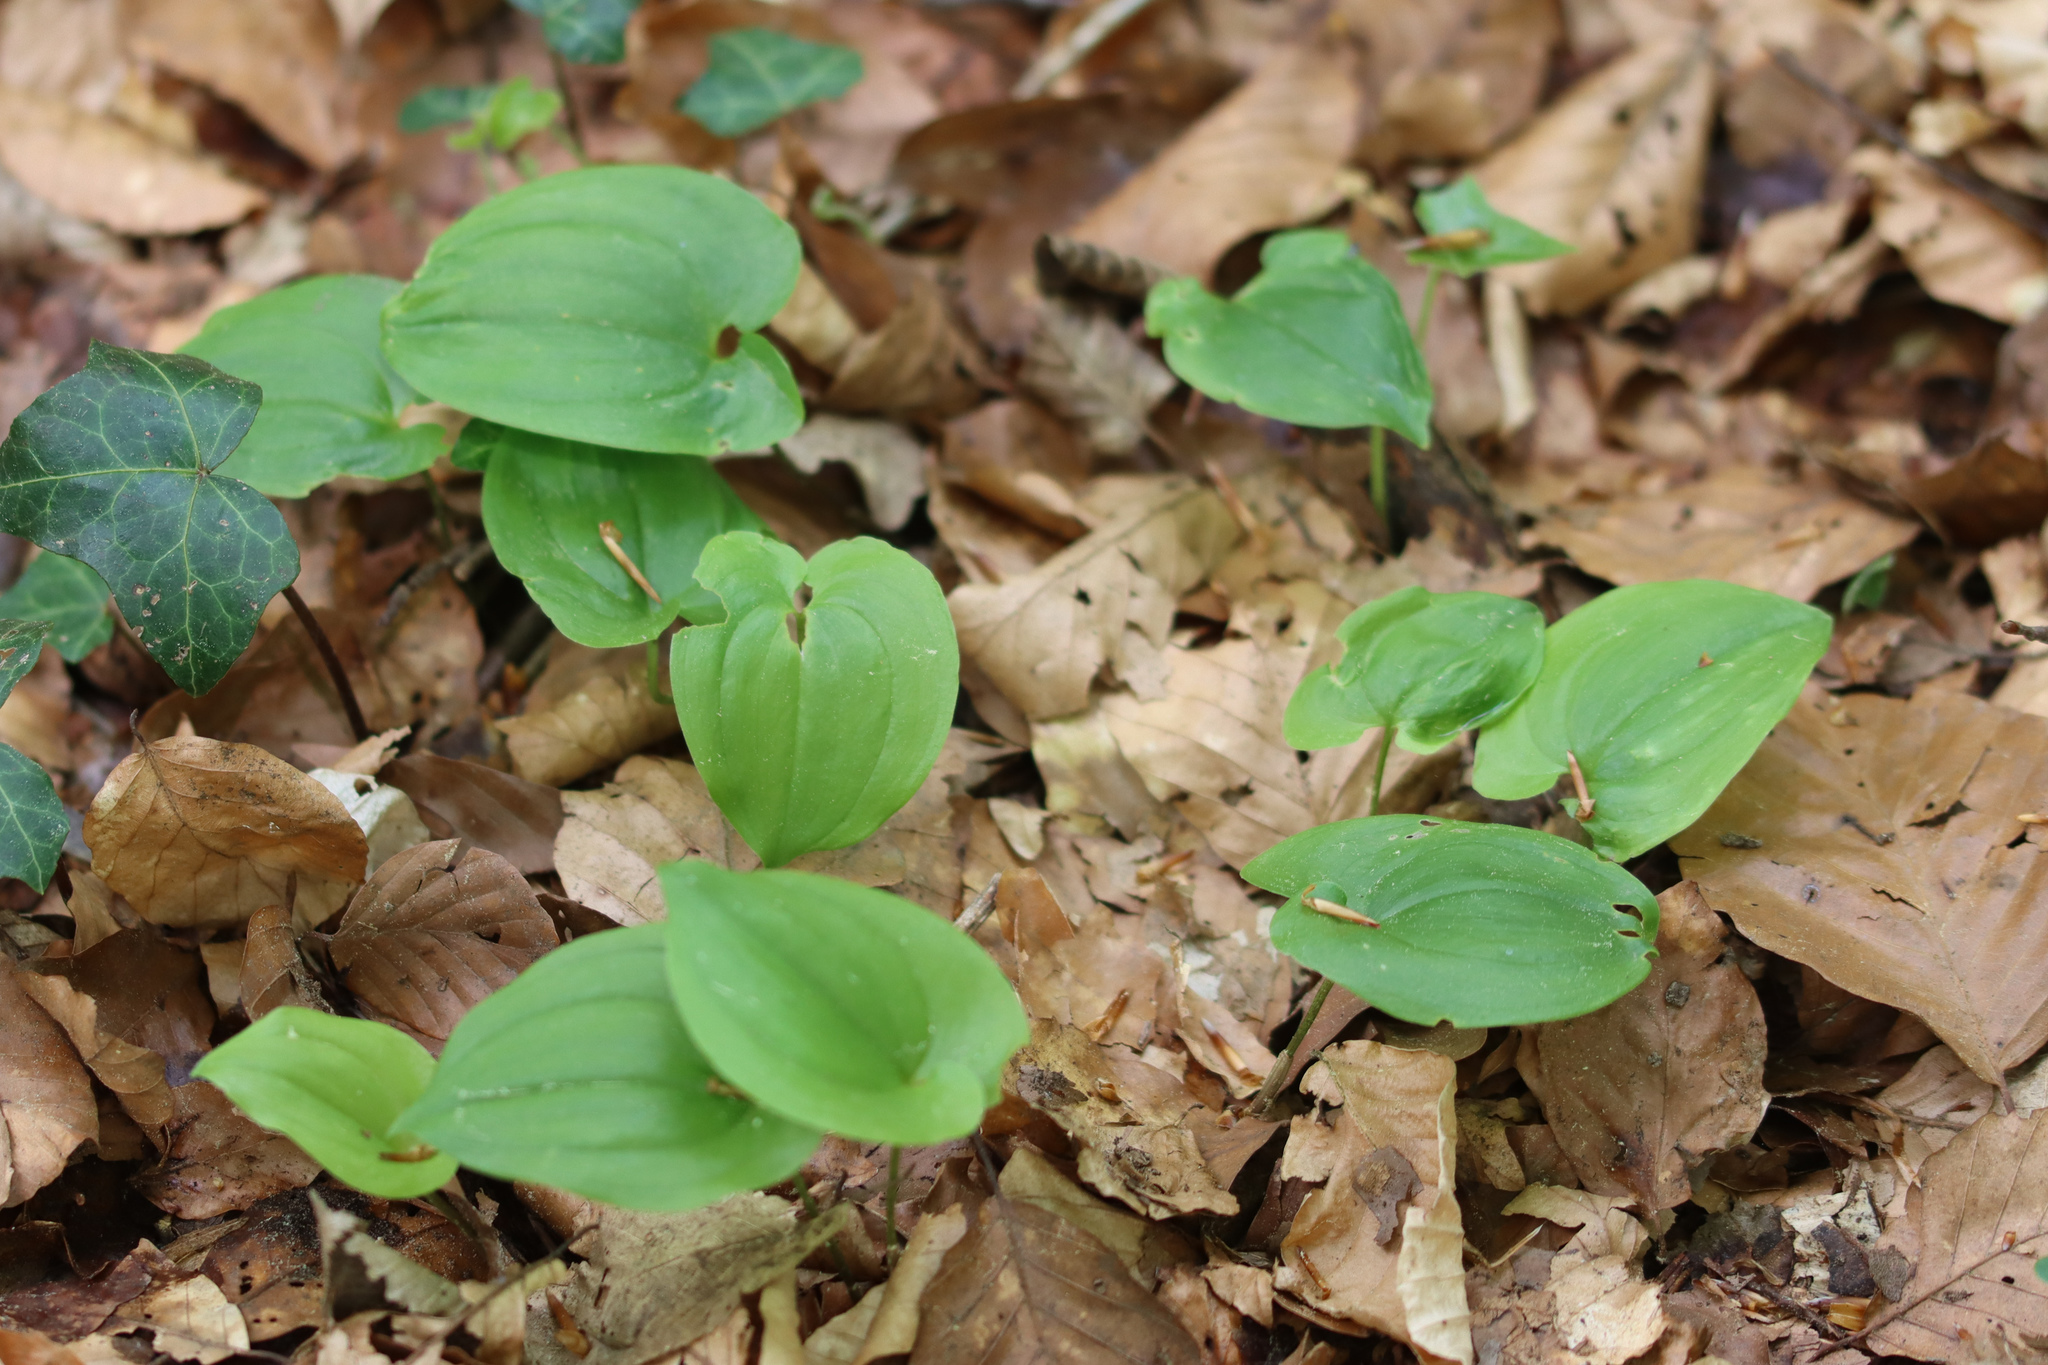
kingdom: Plantae
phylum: Tracheophyta
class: Liliopsida
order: Asparagales
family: Asparagaceae
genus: Maianthemum
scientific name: Maianthemum bifolium
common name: May lily
